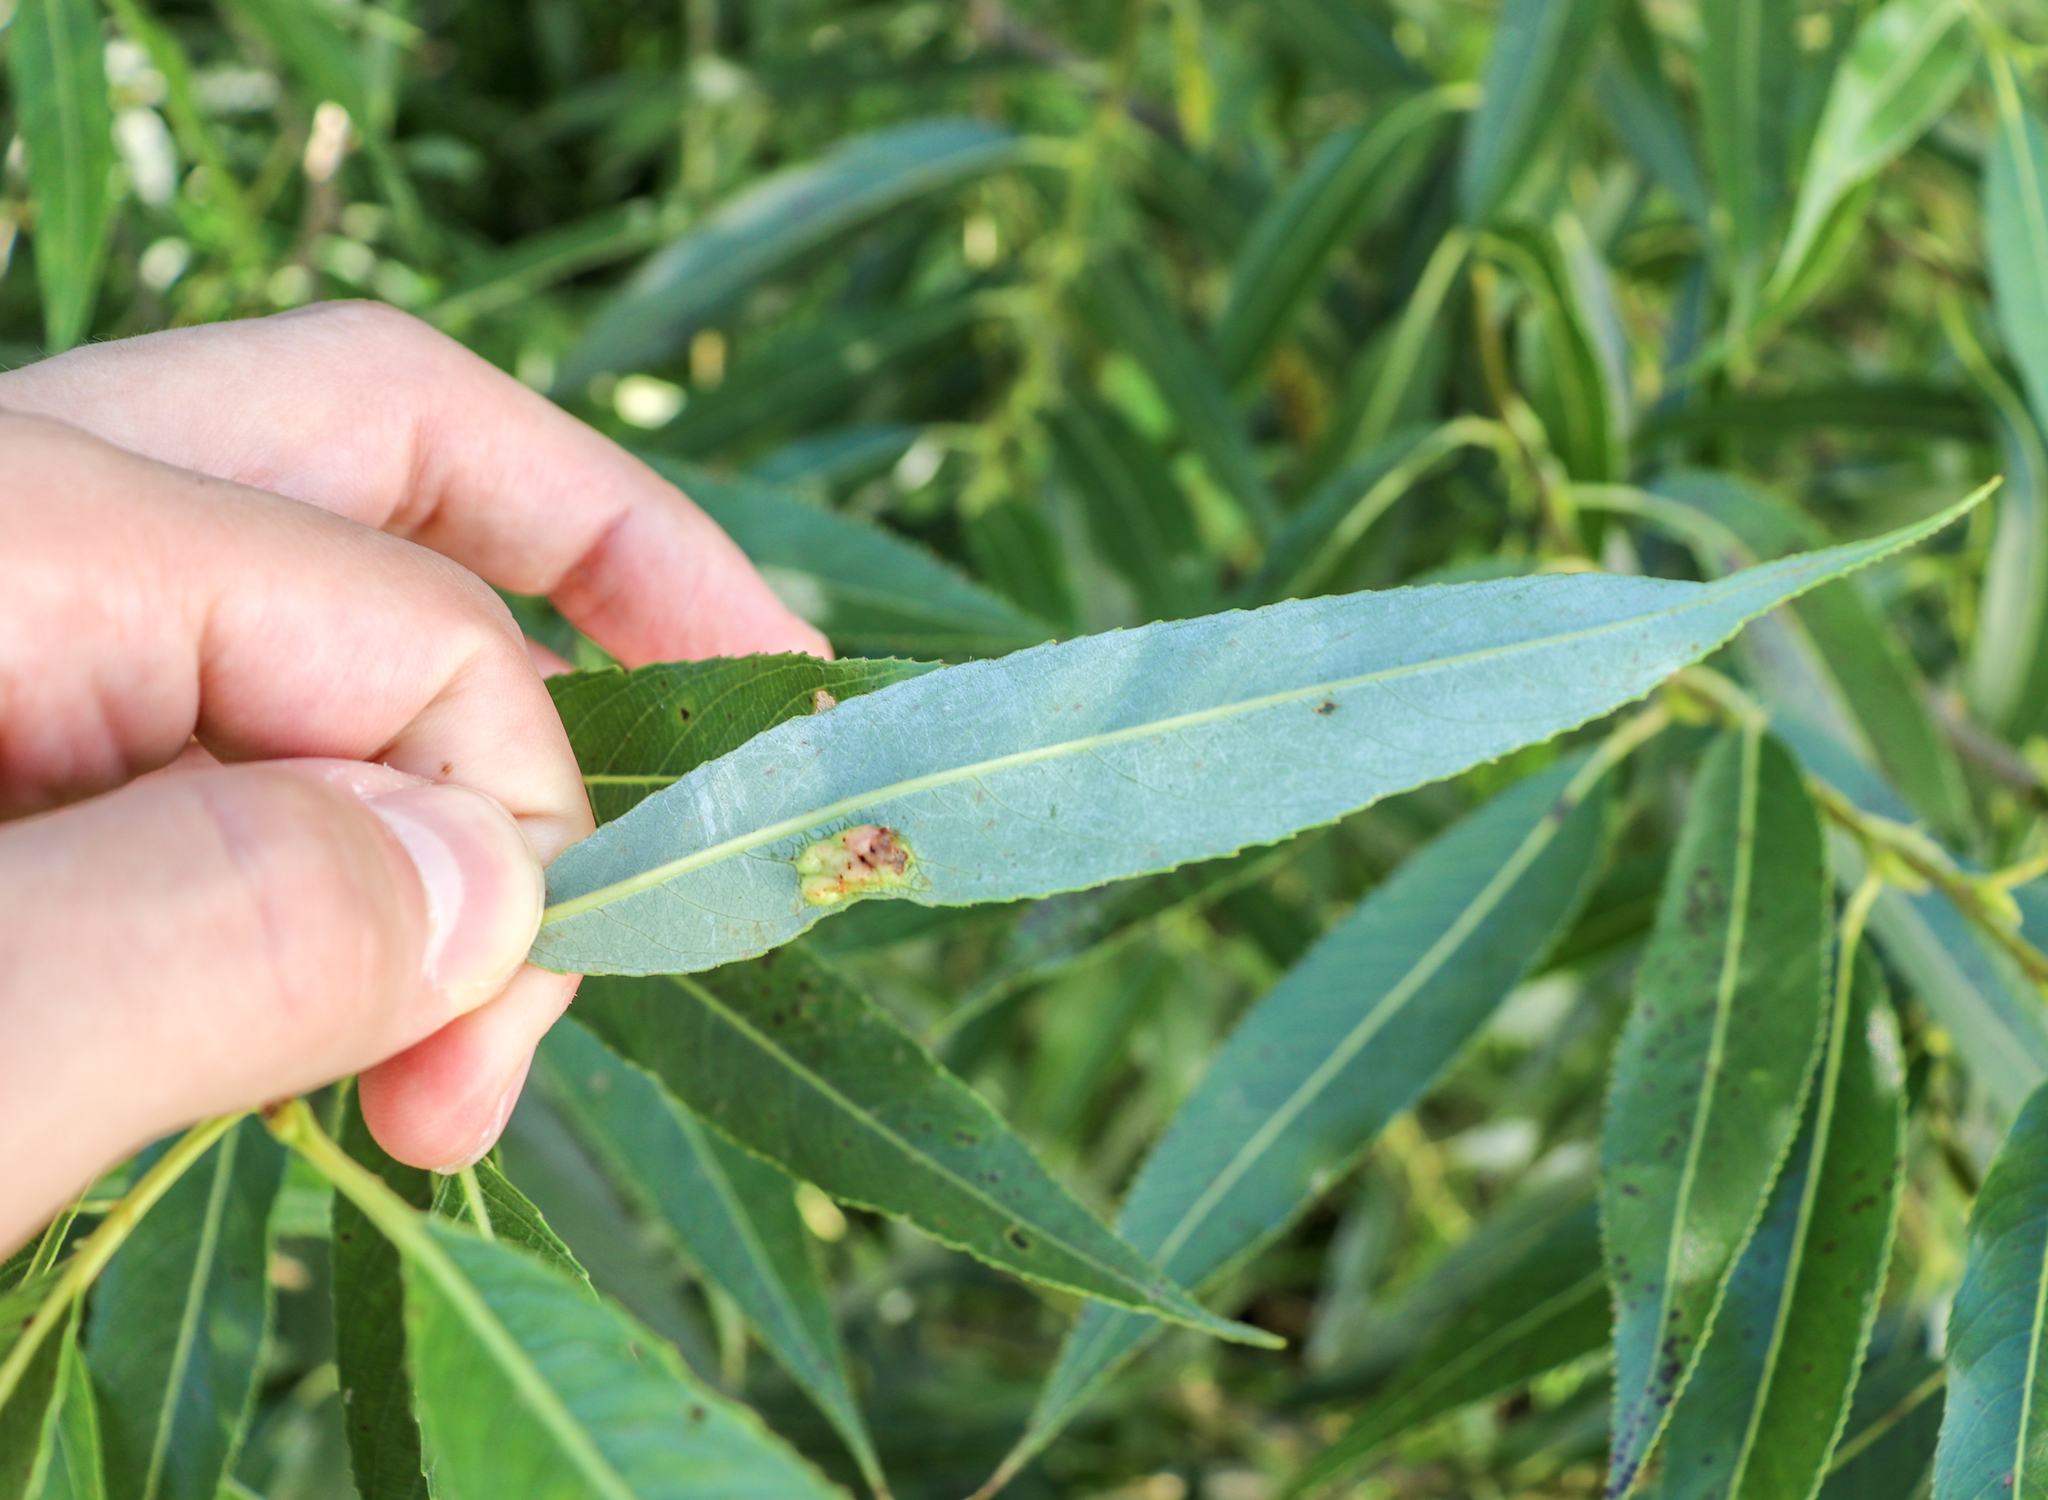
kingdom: Animalia
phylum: Arthropoda
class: Insecta
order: Hymenoptera
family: Tenthredinidae
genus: Pontania
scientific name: Pontania proxima
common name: Common sawfly
